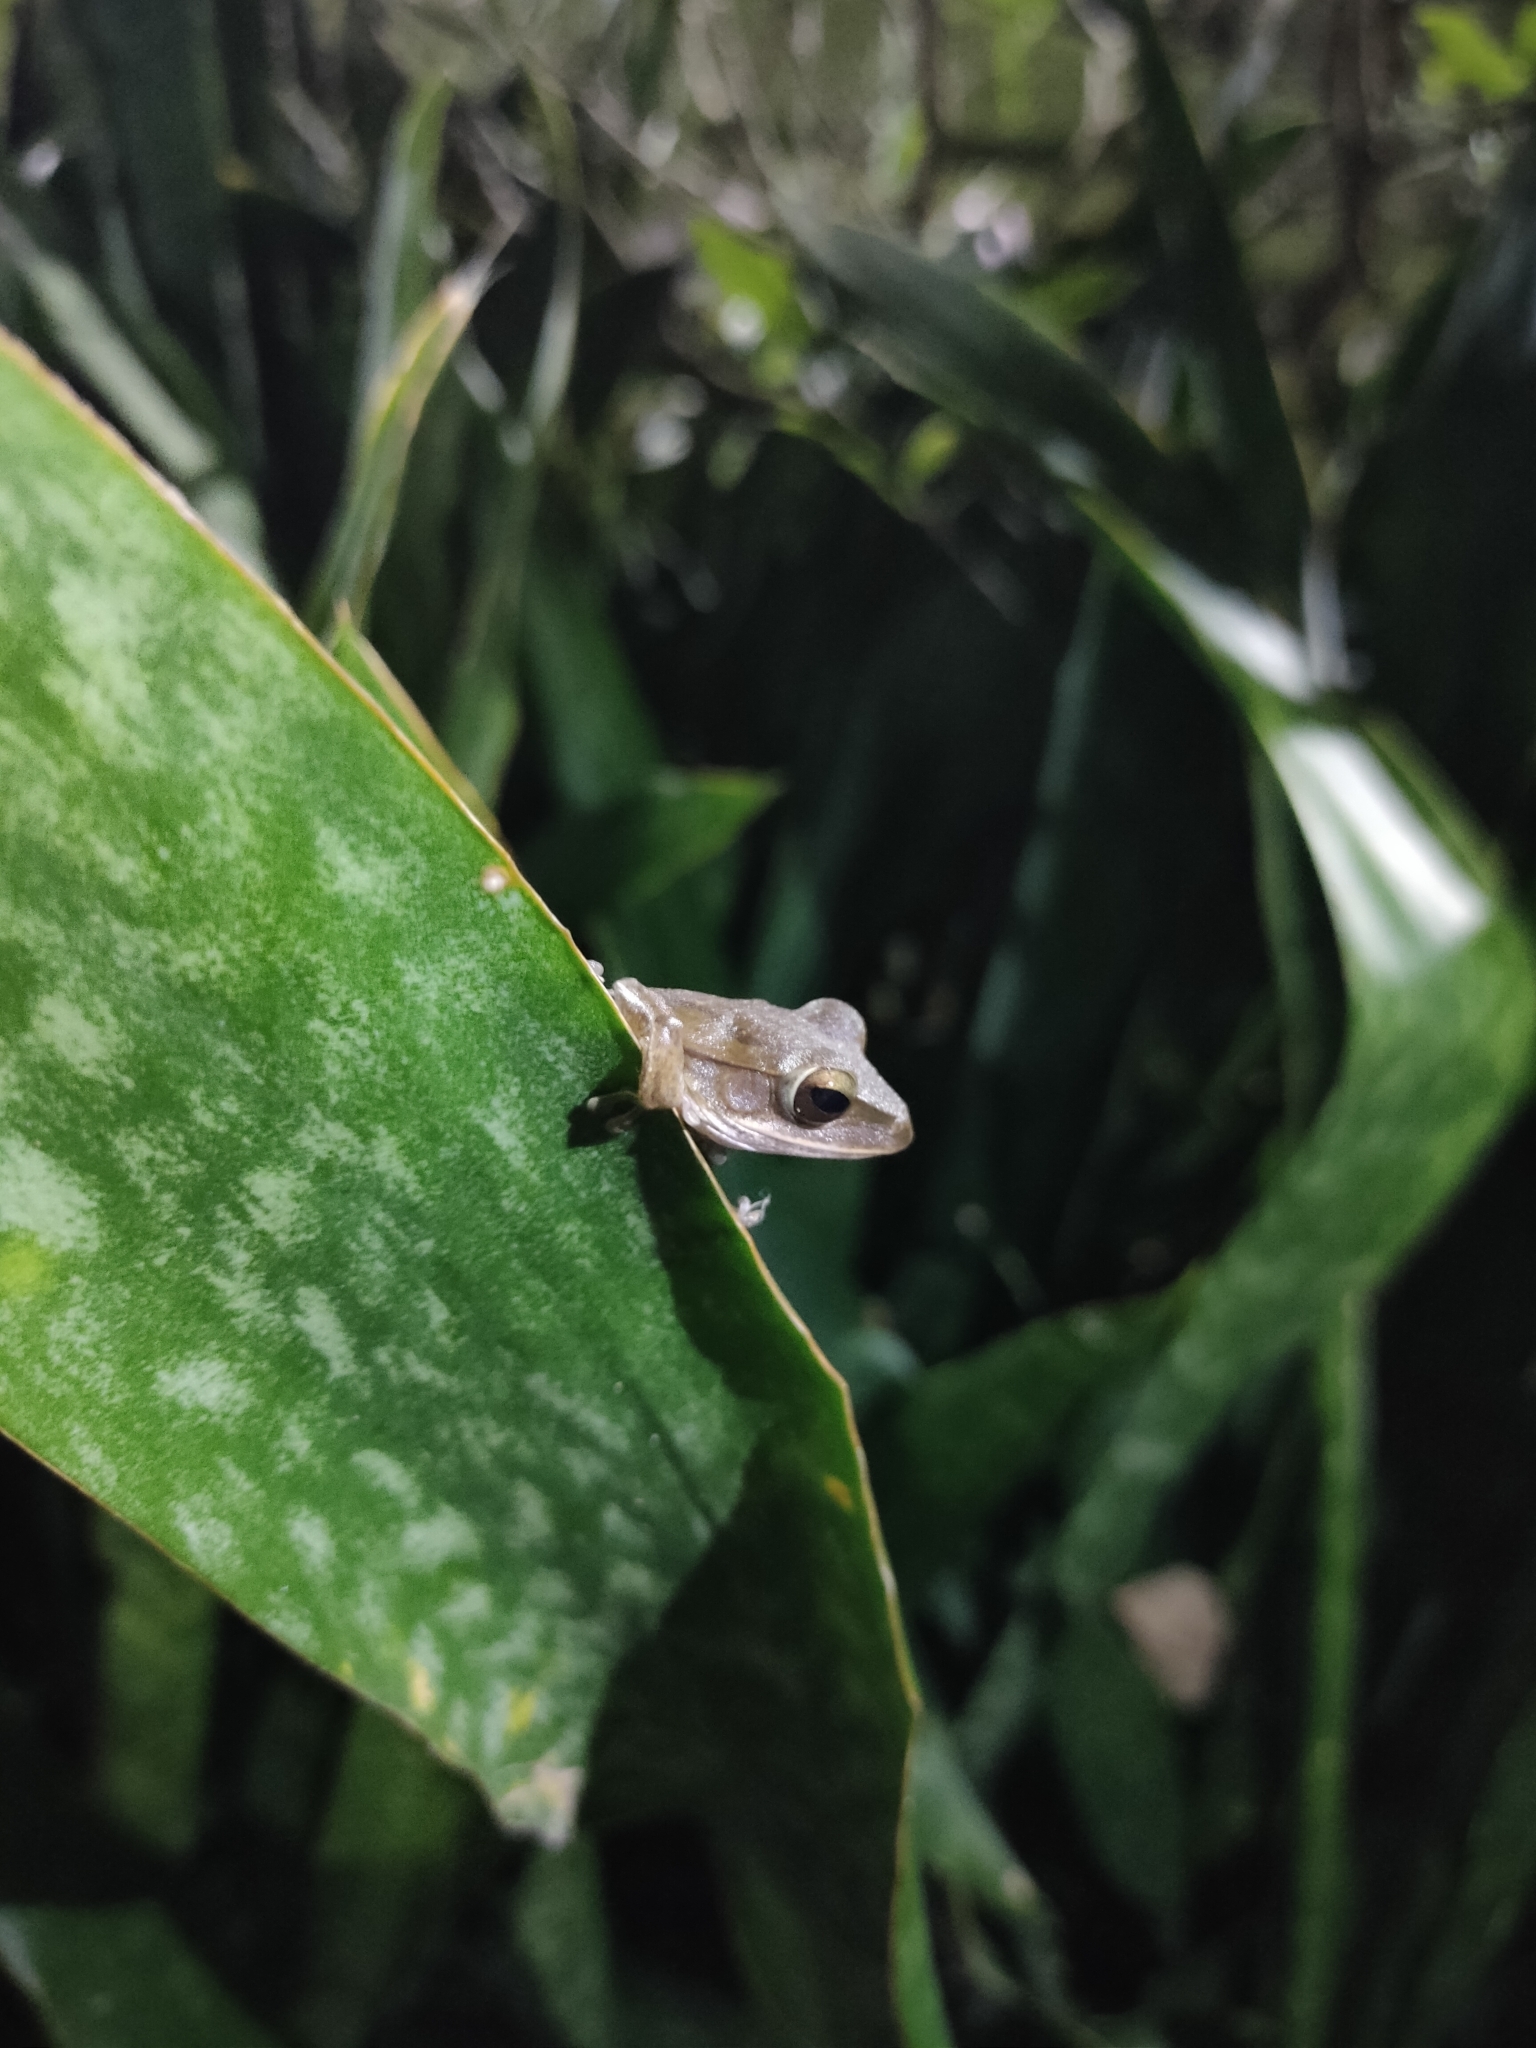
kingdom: Animalia
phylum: Chordata
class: Amphibia
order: Anura
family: Rhacophoridae
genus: Polypedates
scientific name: Polypedates megacephalus
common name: Hong kong whipping frog
